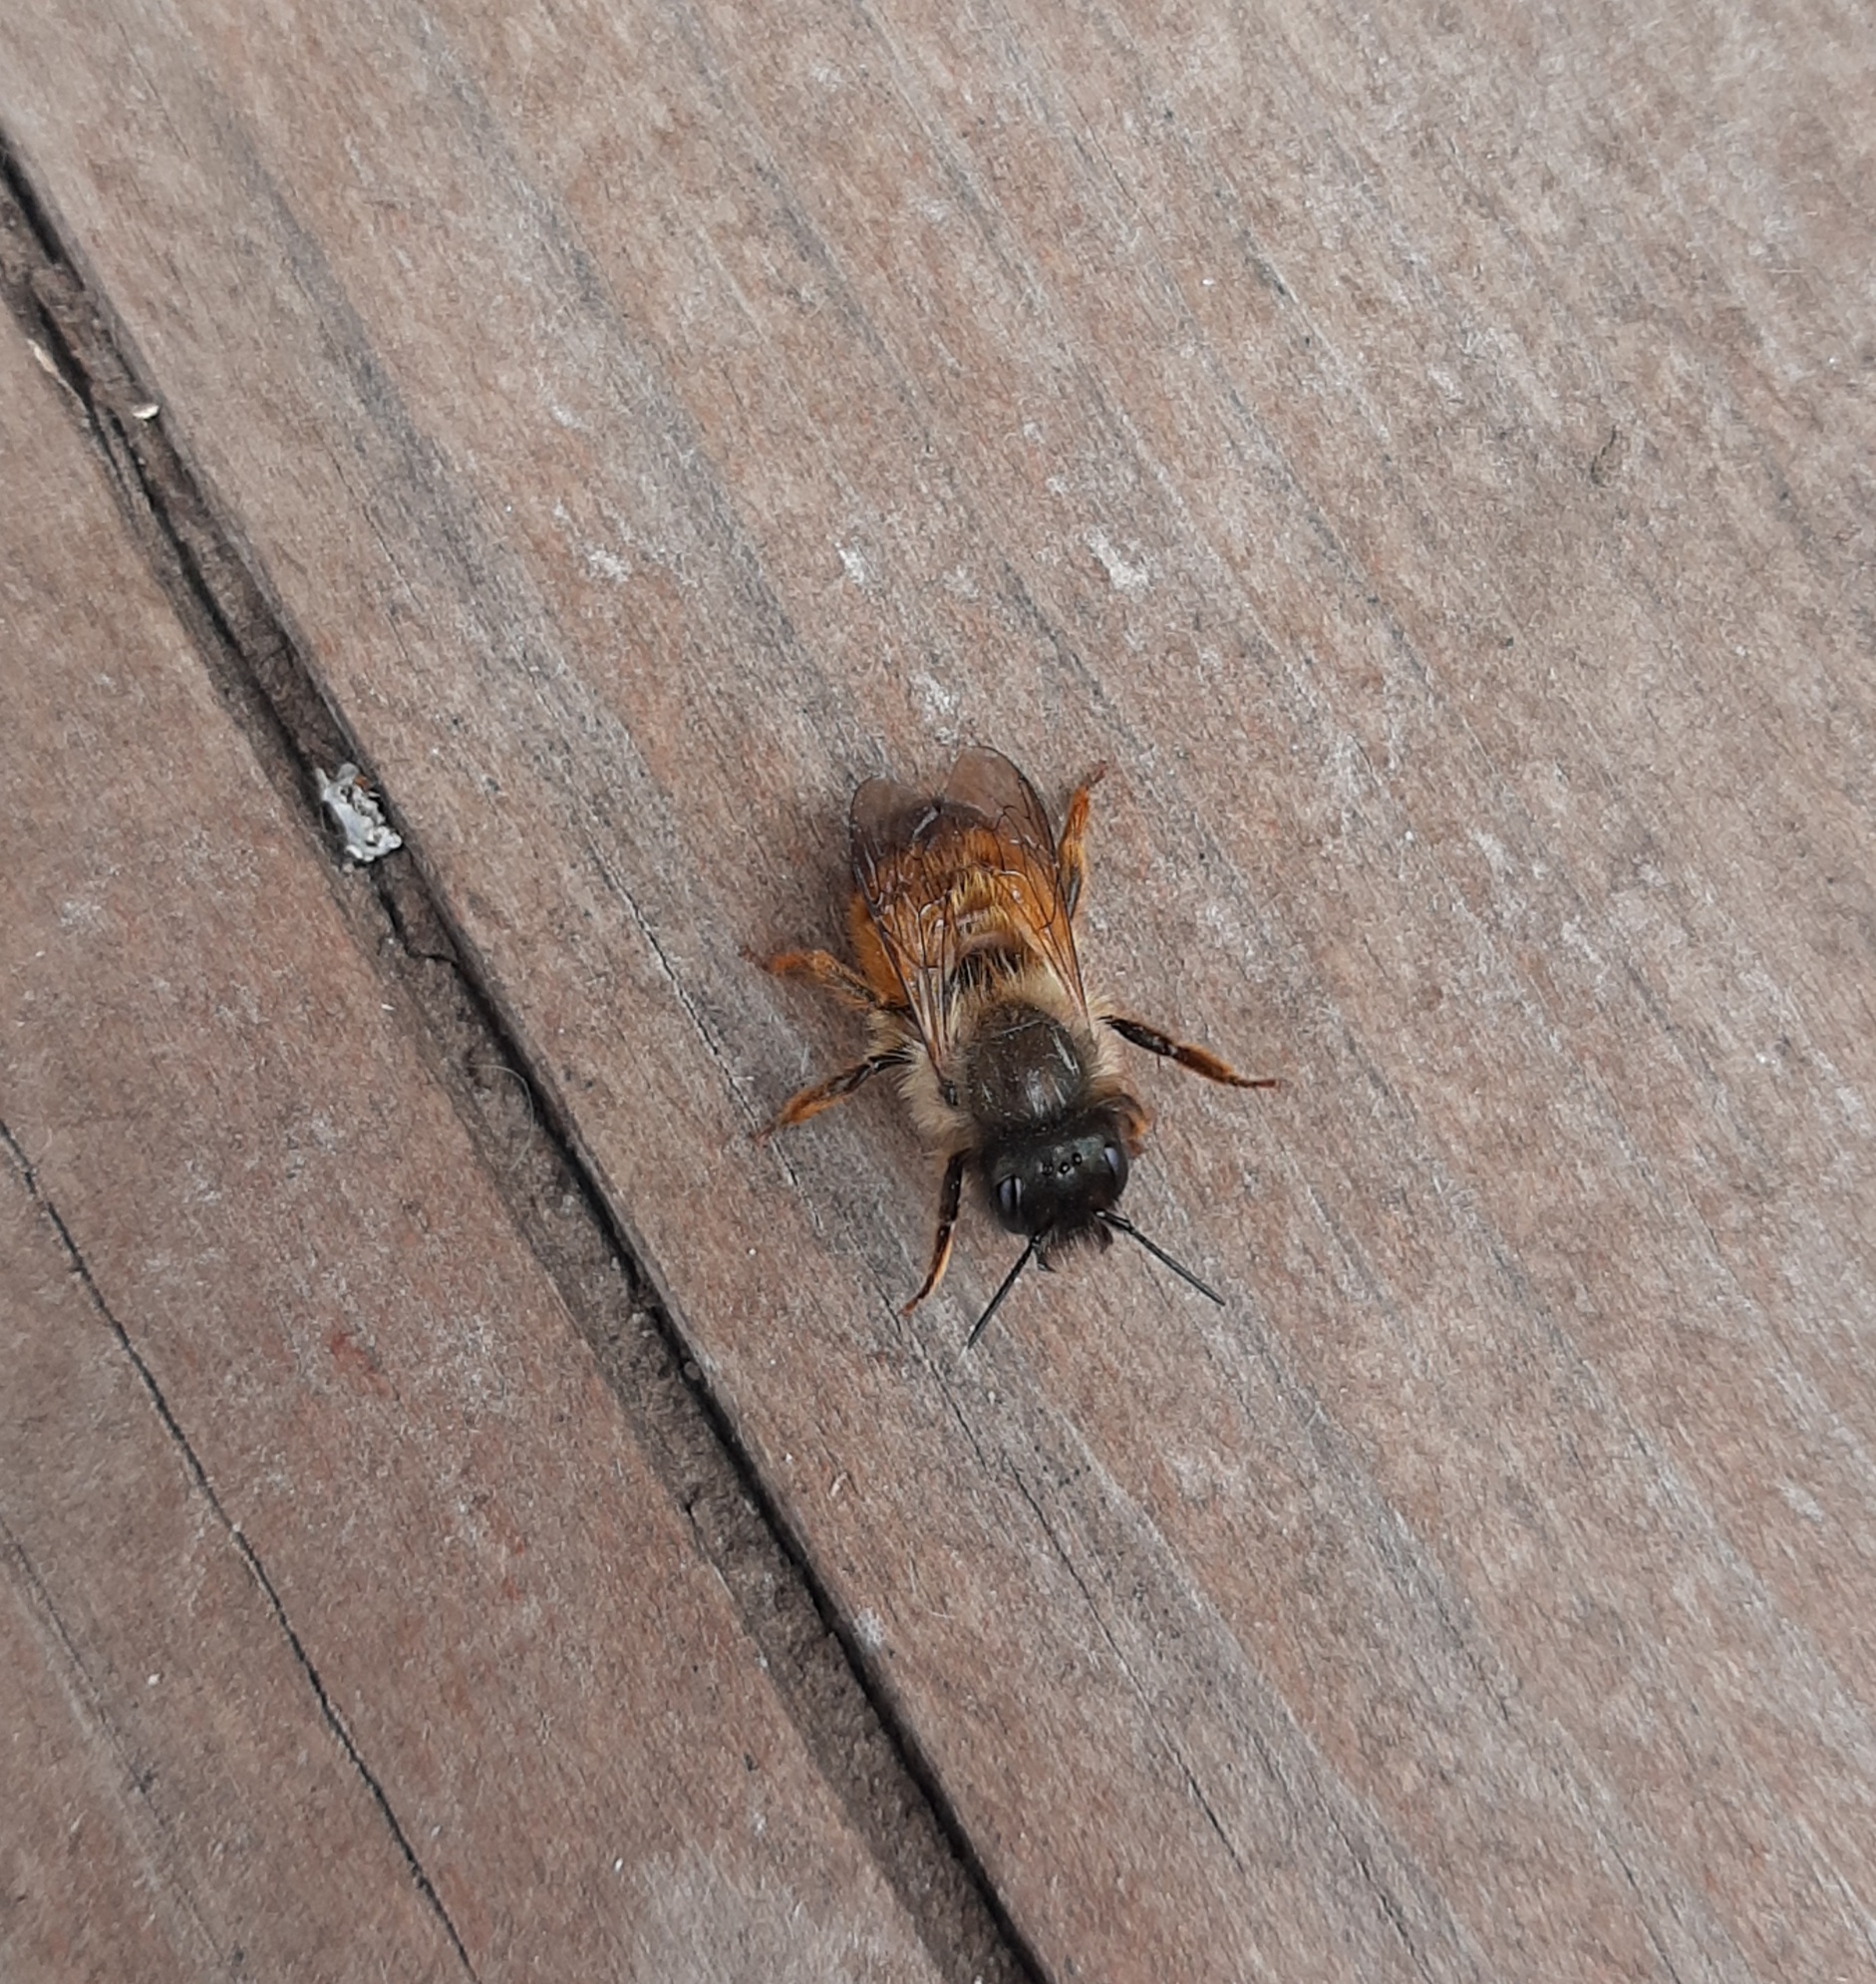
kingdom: Animalia
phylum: Arthropoda
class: Insecta
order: Hymenoptera
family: Megachilidae
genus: Osmia
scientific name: Osmia bicornis
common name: Red mason bee
